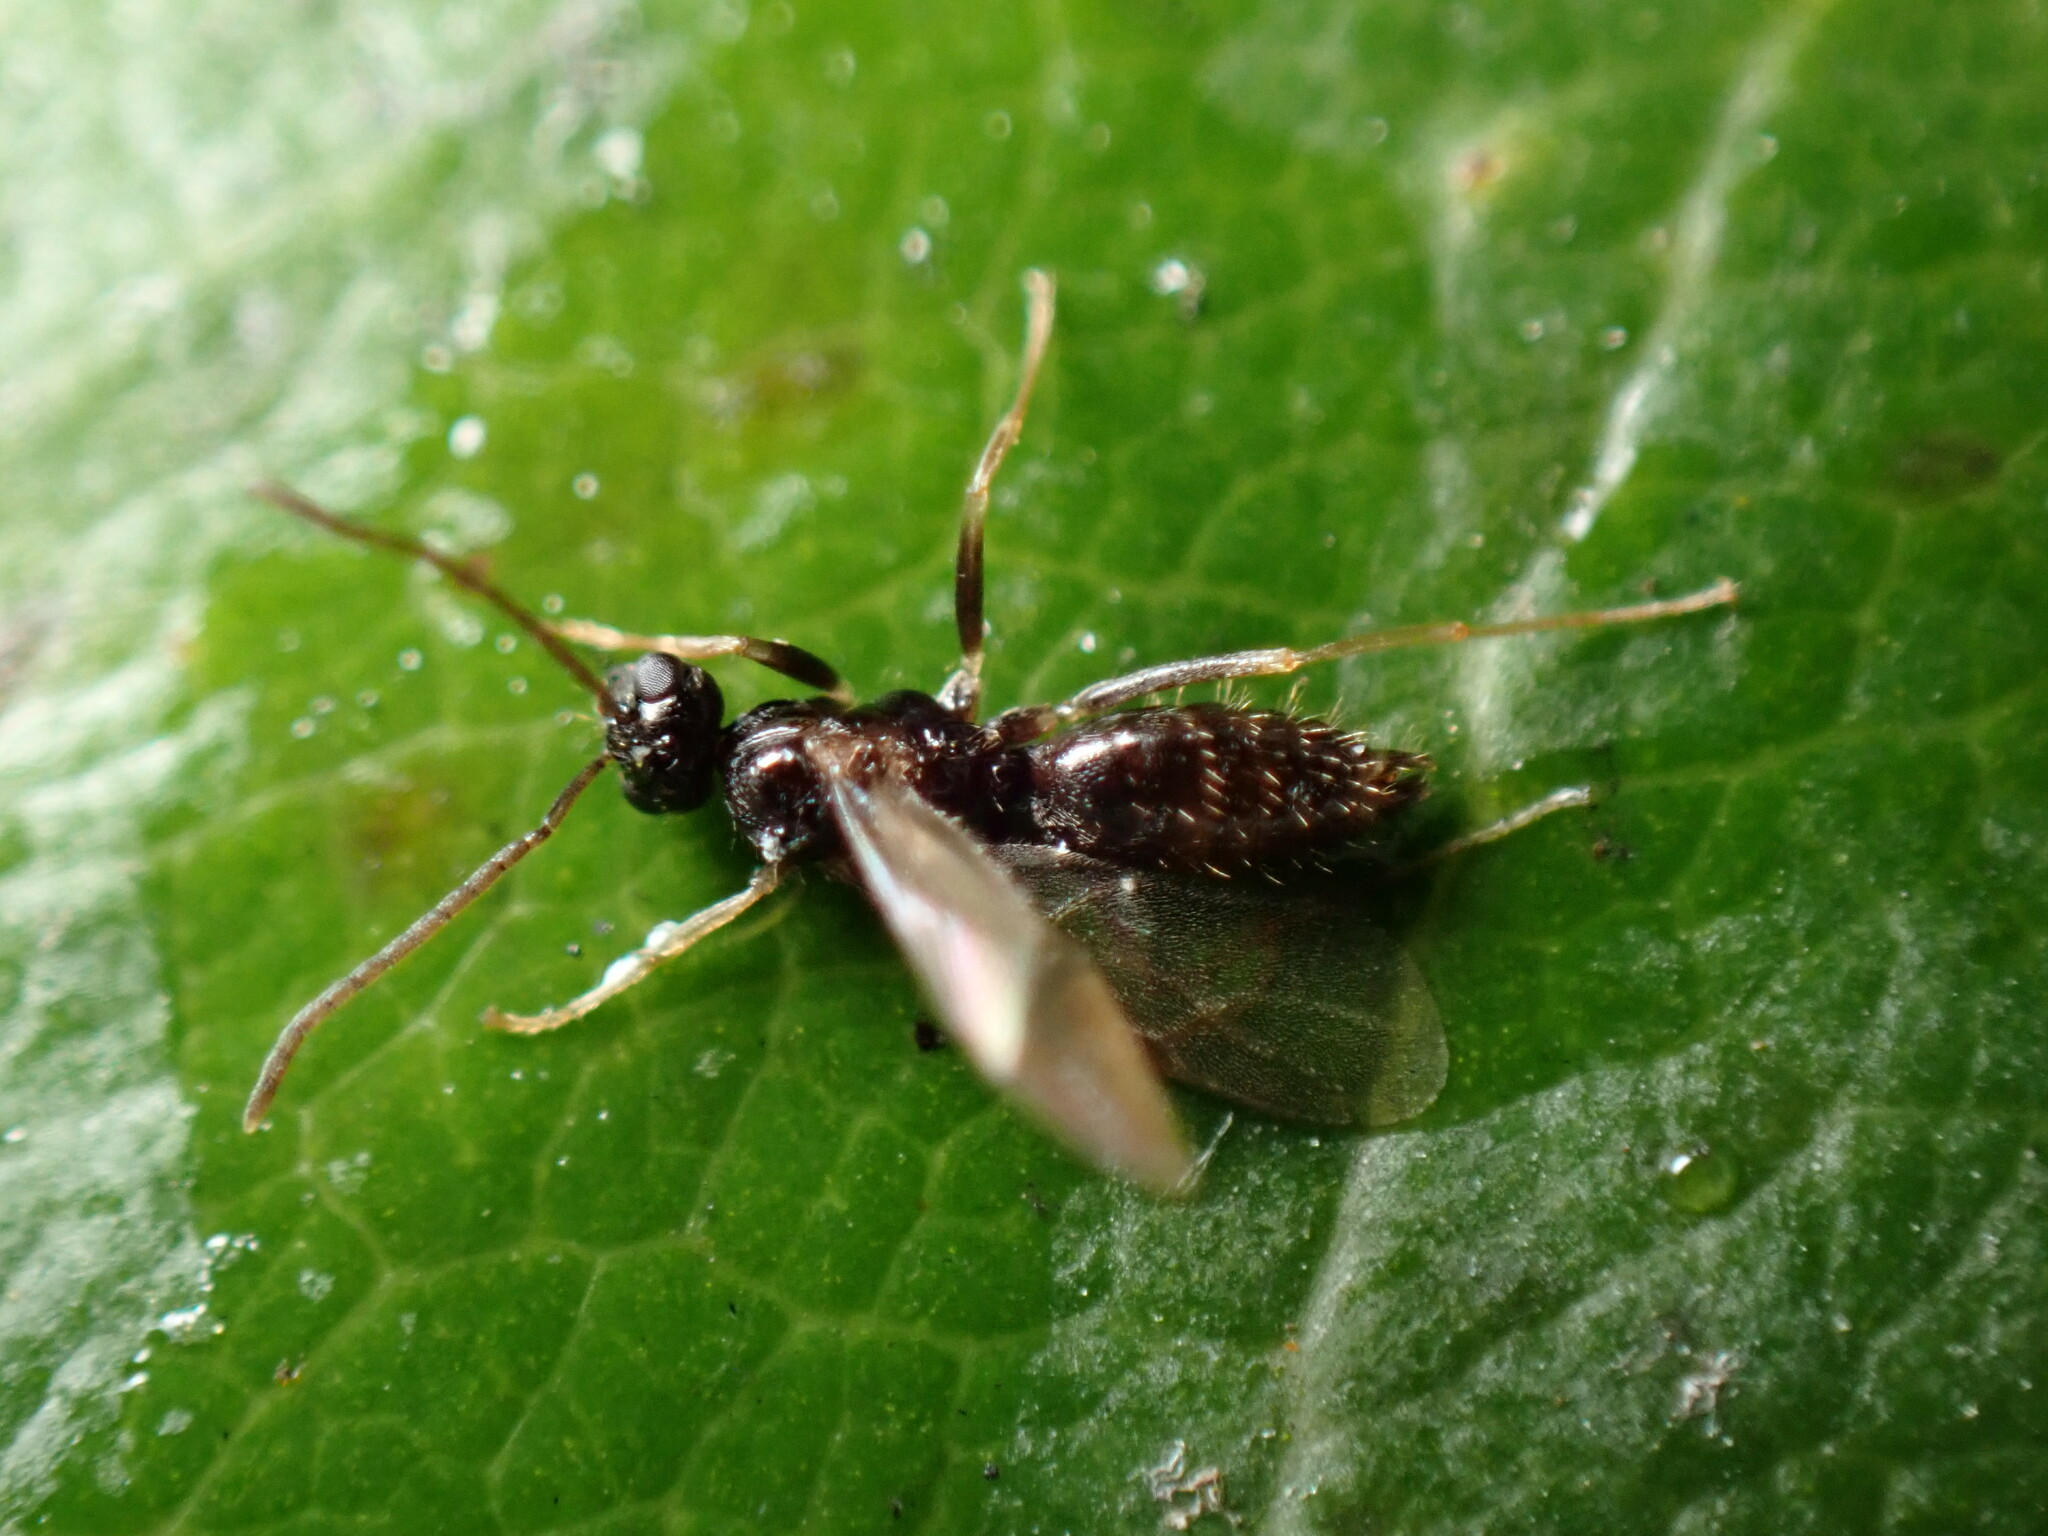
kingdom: Animalia
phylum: Arthropoda
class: Insecta
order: Hymenoptera
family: Formicidae
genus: Prenolepis
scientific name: Prenolepis imparis
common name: Small honey ant
